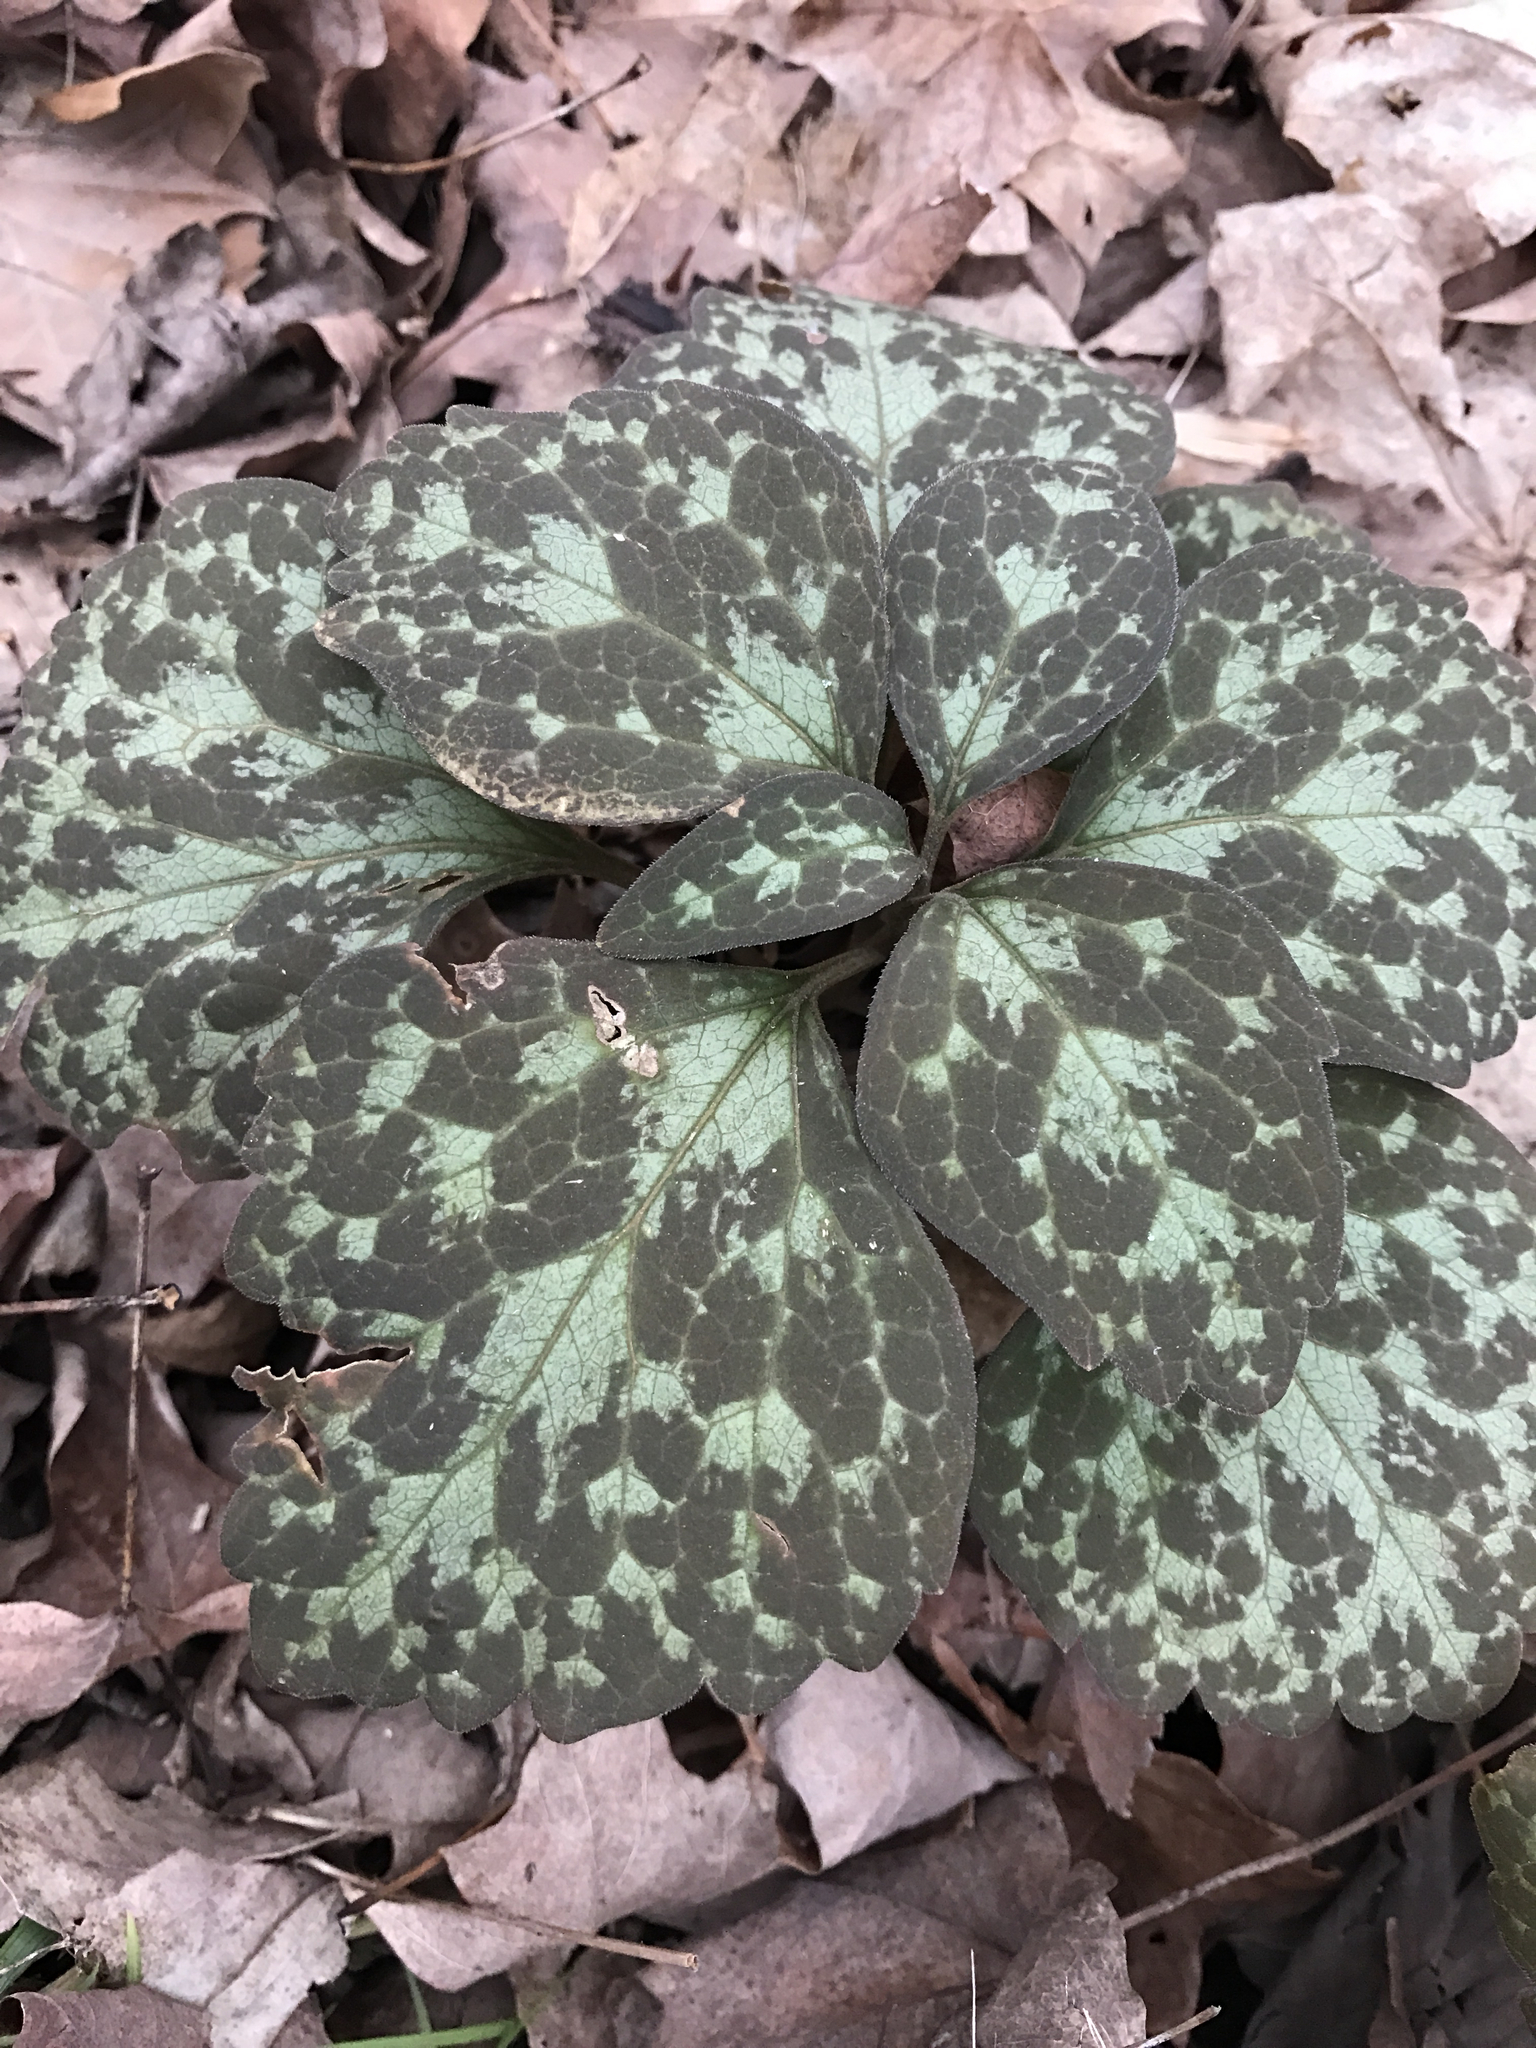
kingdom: Plantae
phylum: Tracheophyta
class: Magnoliopsida
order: Buxales
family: Buxaceae
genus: Pachysandra
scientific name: Pachysandra procumbens
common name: Mountain-spurge
